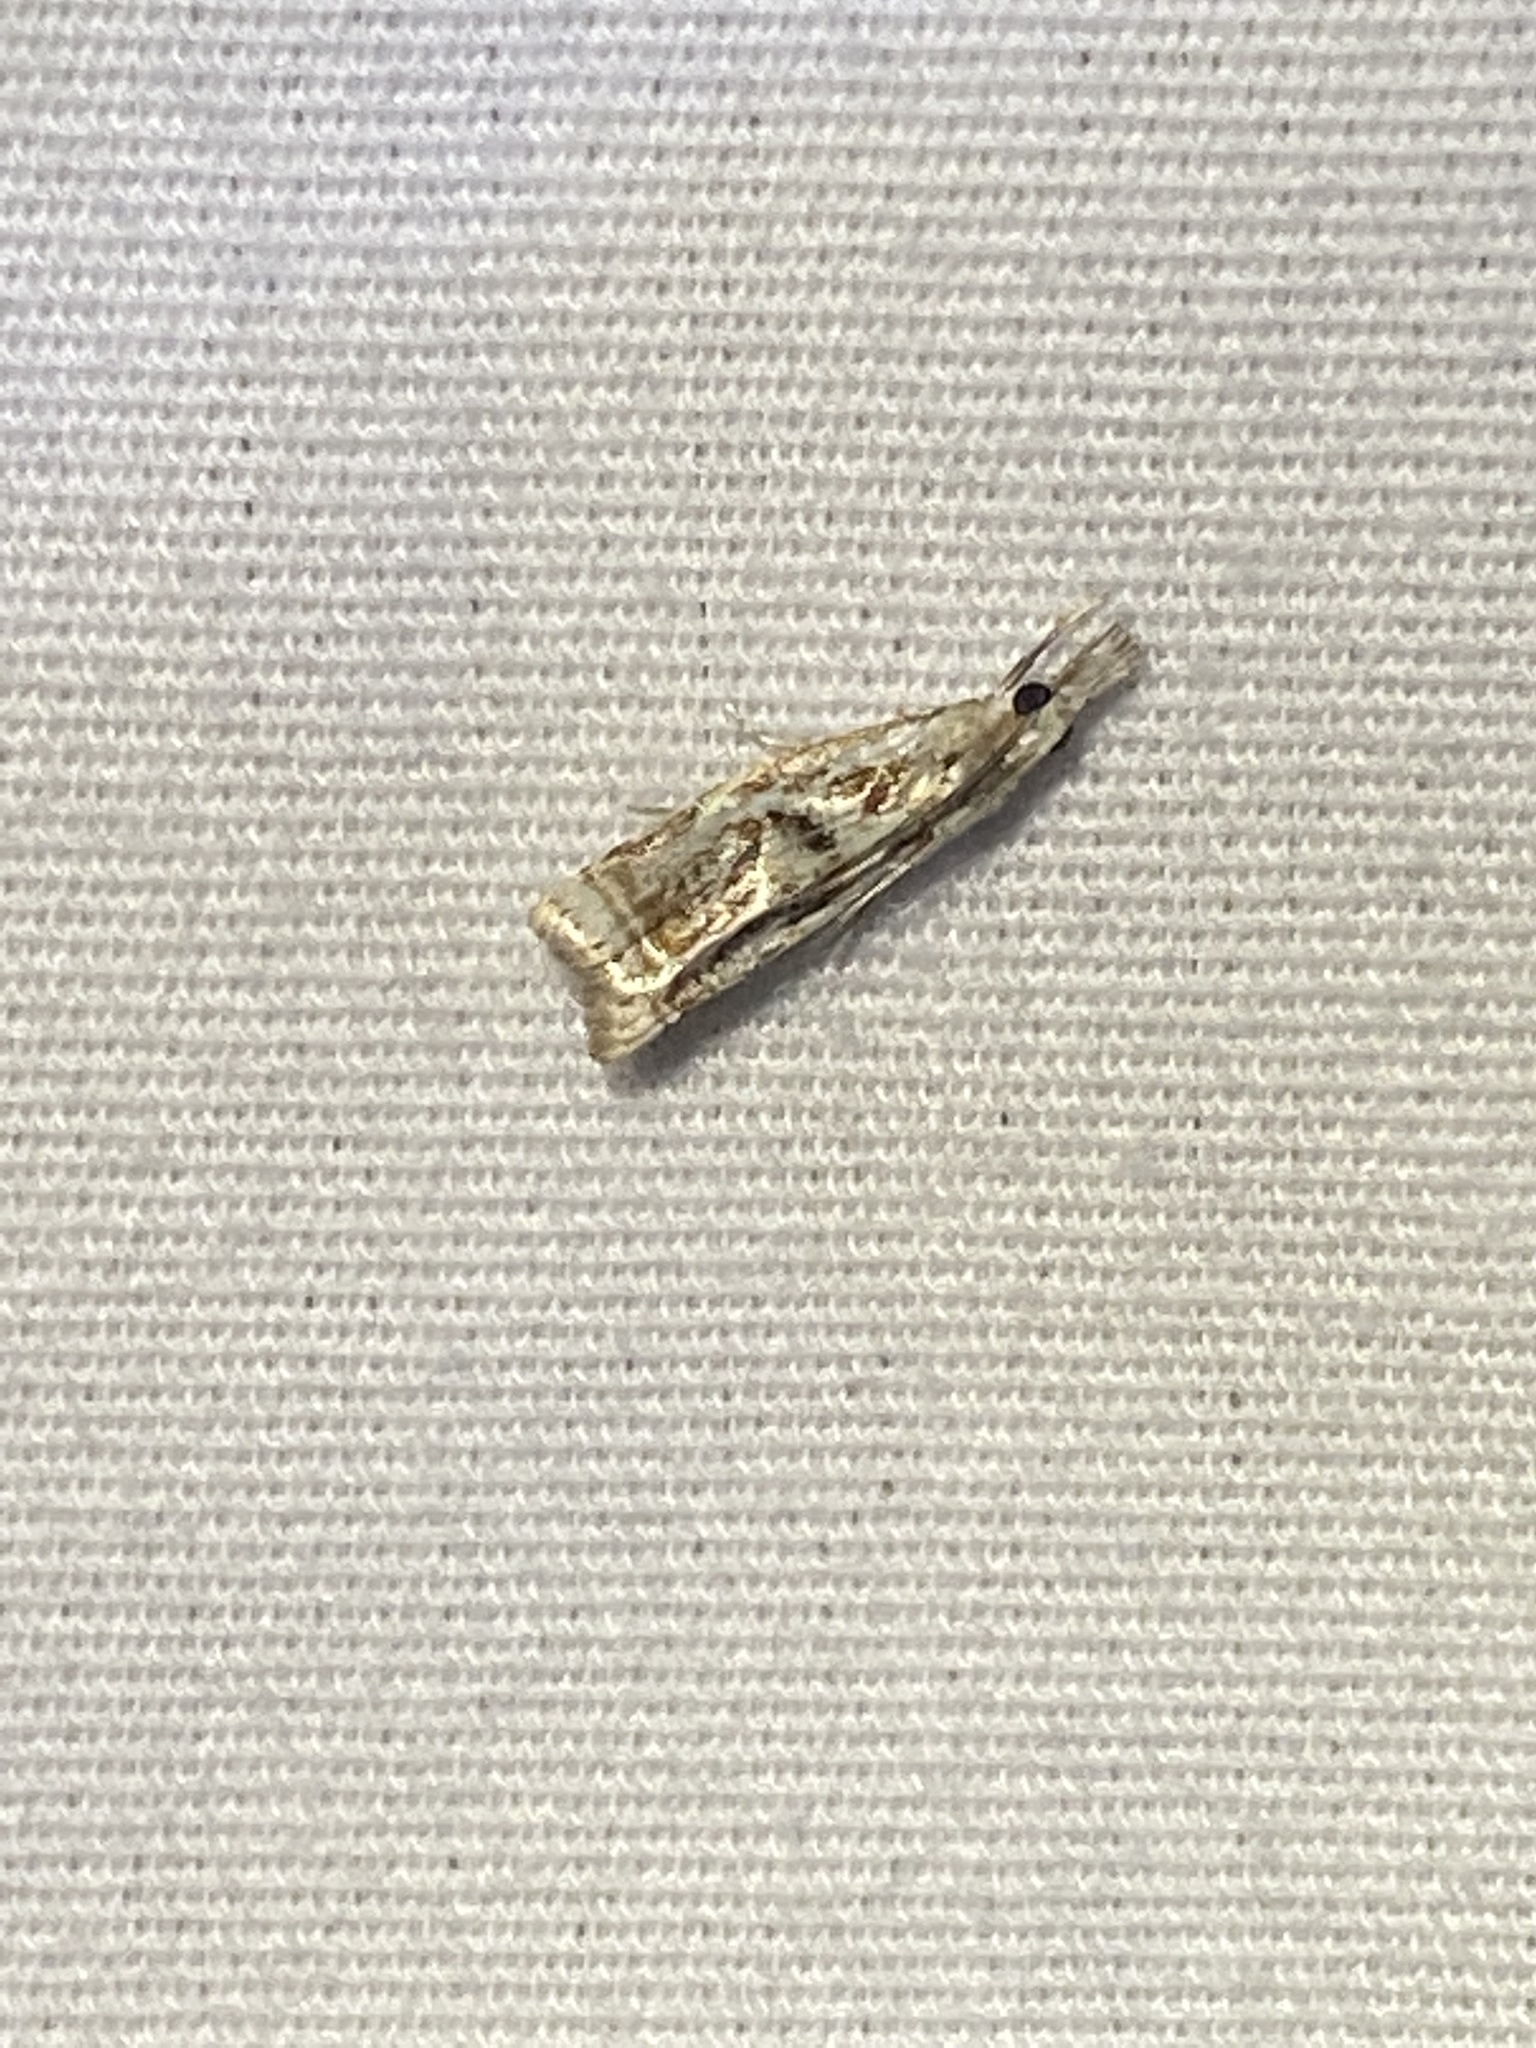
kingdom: Animalia
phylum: Arthropoda
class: Insecta
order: Lepidoptera
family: Crambidae
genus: Microcrambus
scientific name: Microcrambus elegans
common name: Elegant grass-veneer
